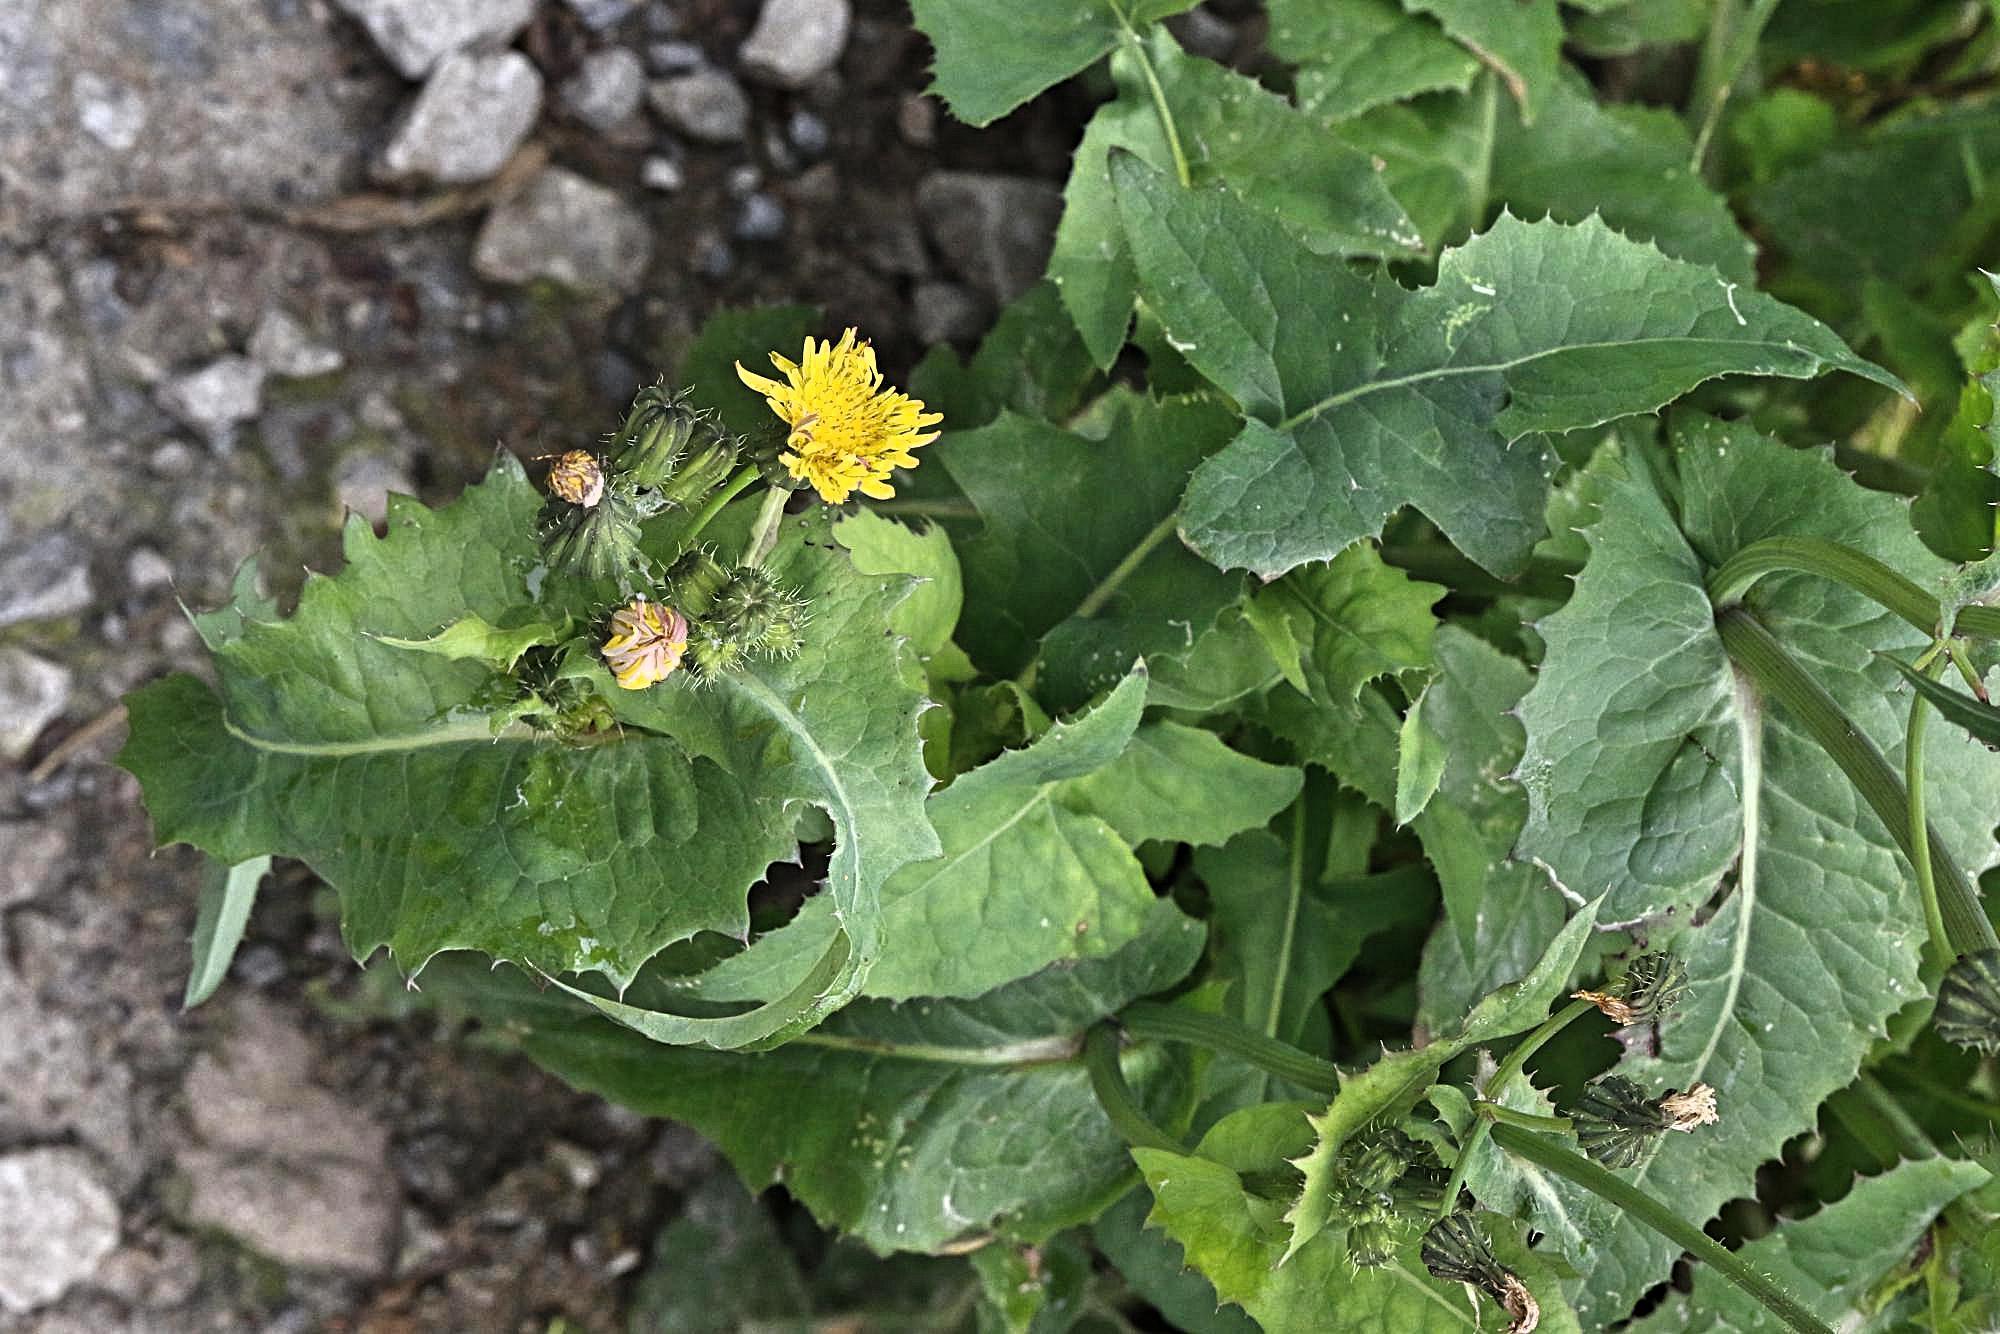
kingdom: Plantae
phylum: Tracheophyta
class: Magnoliopsida
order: Asterales
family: Asteraceae
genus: Sonchus
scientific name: Sonchus oleraceus
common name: Common sowthistle
